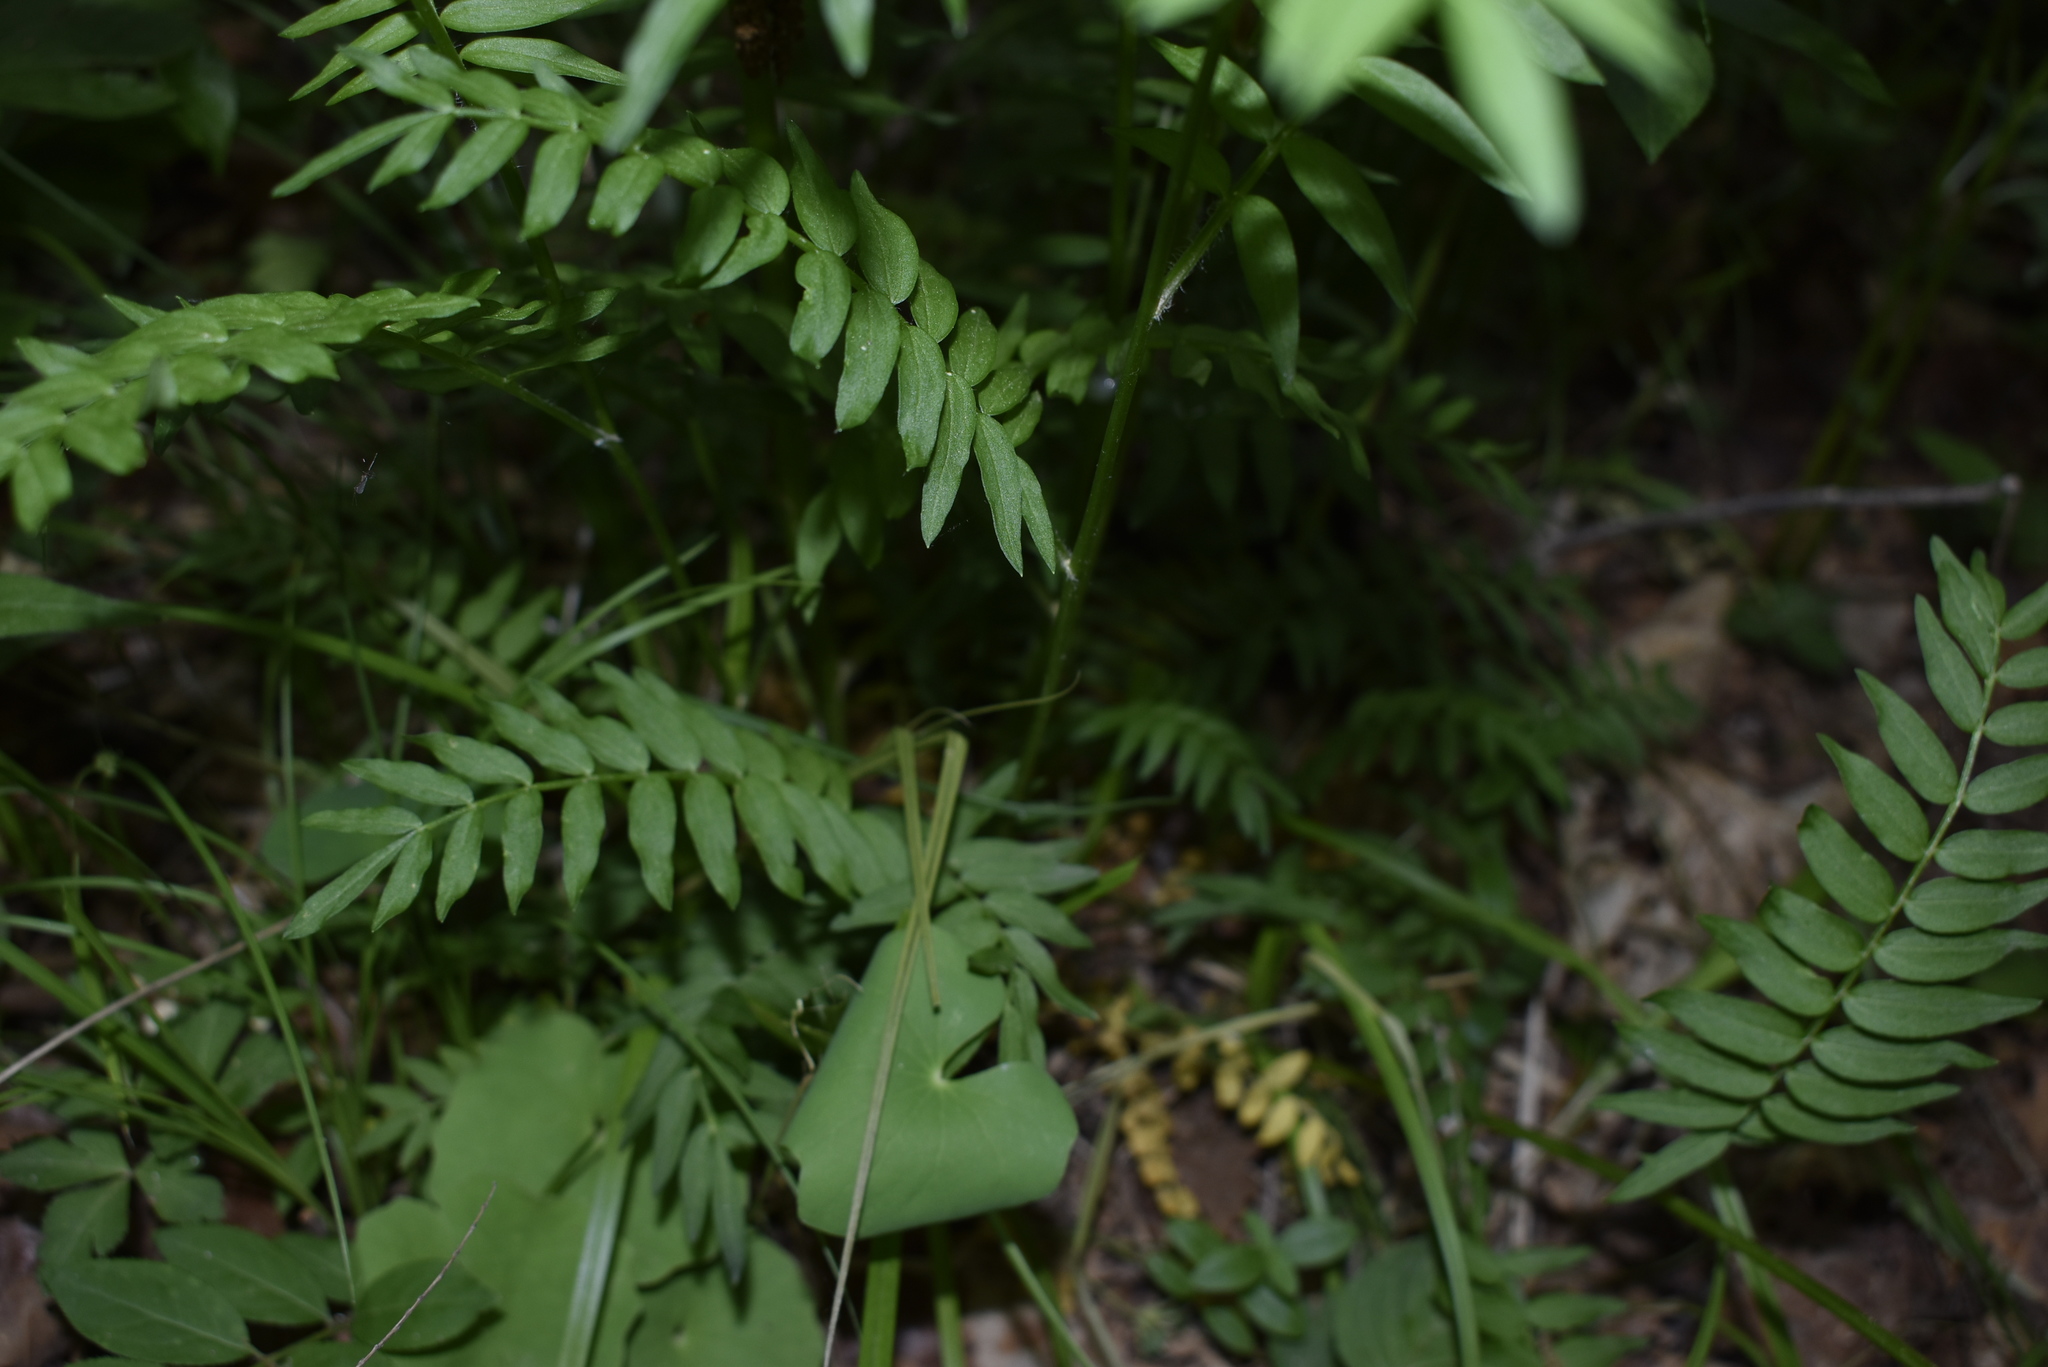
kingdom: Plantae
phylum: Tracheophyta
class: Magnoliopsida
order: Ericales
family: Polemoniaceae
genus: Polemonium
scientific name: Polemonium caeruleum
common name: Jacob's-ladder
